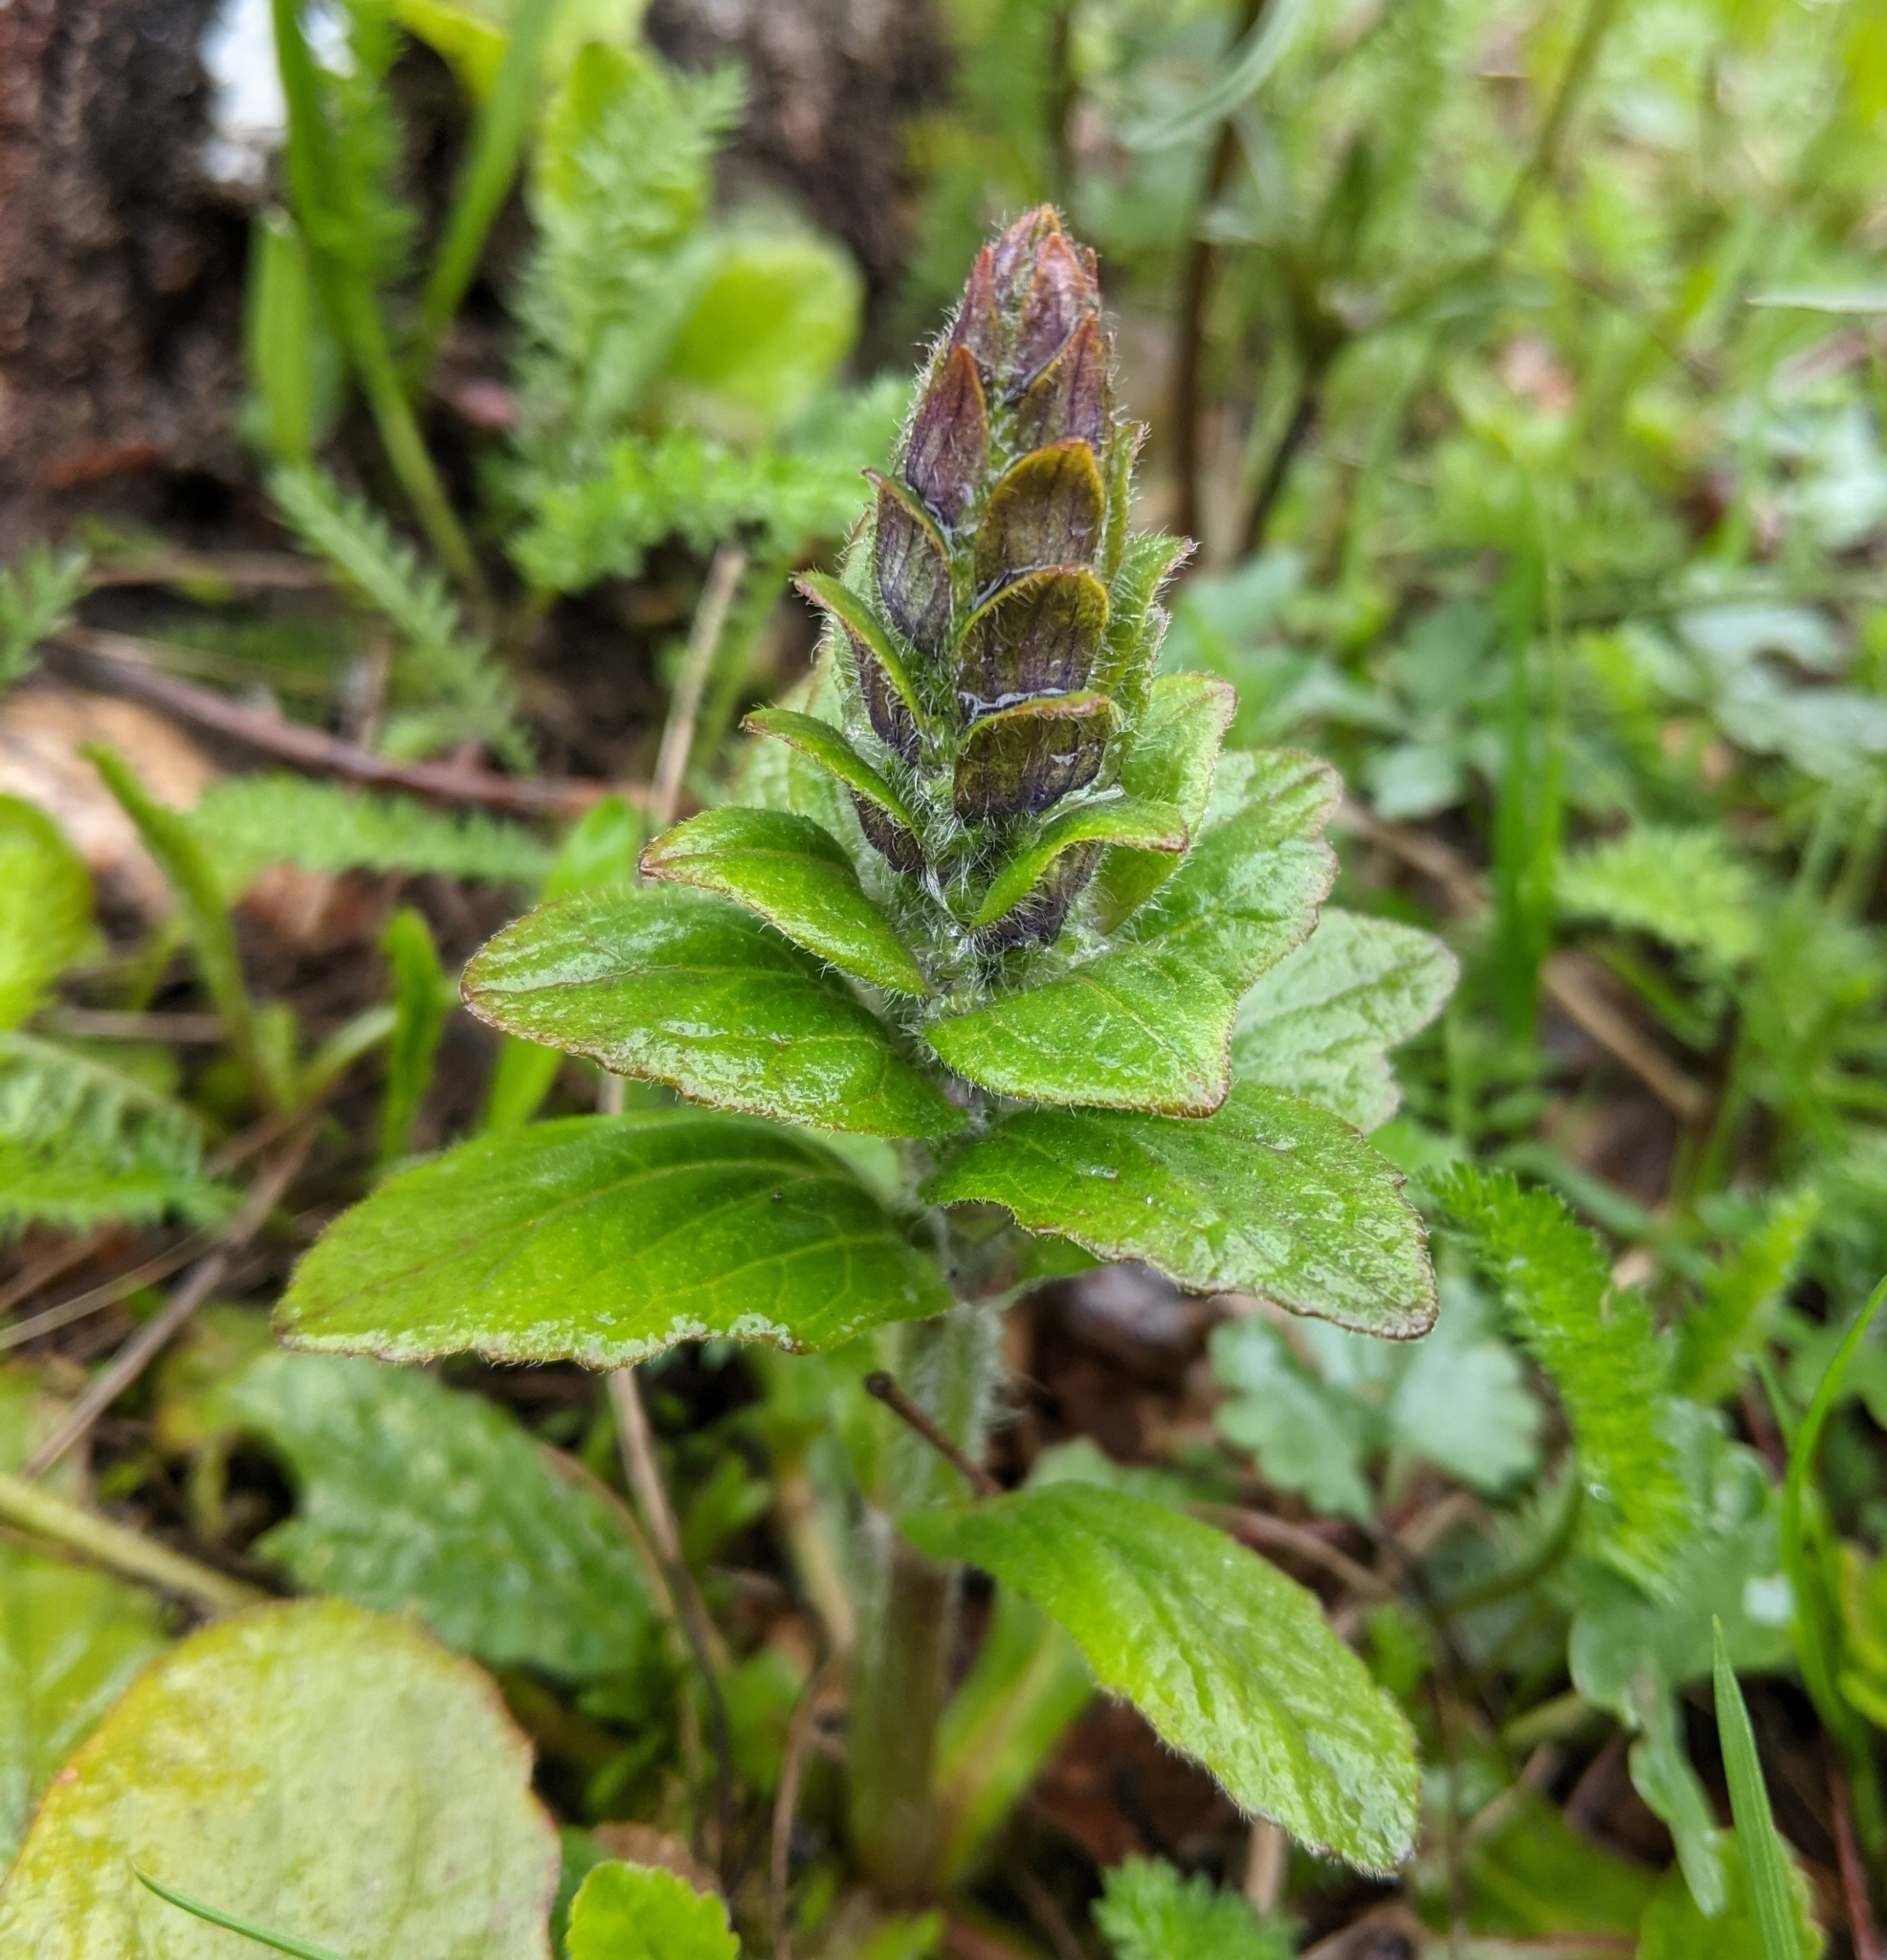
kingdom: Plantae
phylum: Tracheophyta
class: Magnoliopsida
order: Lamiales
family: Lamiaceae
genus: Ajuga
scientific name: Ajuga reptans
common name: Bugle
